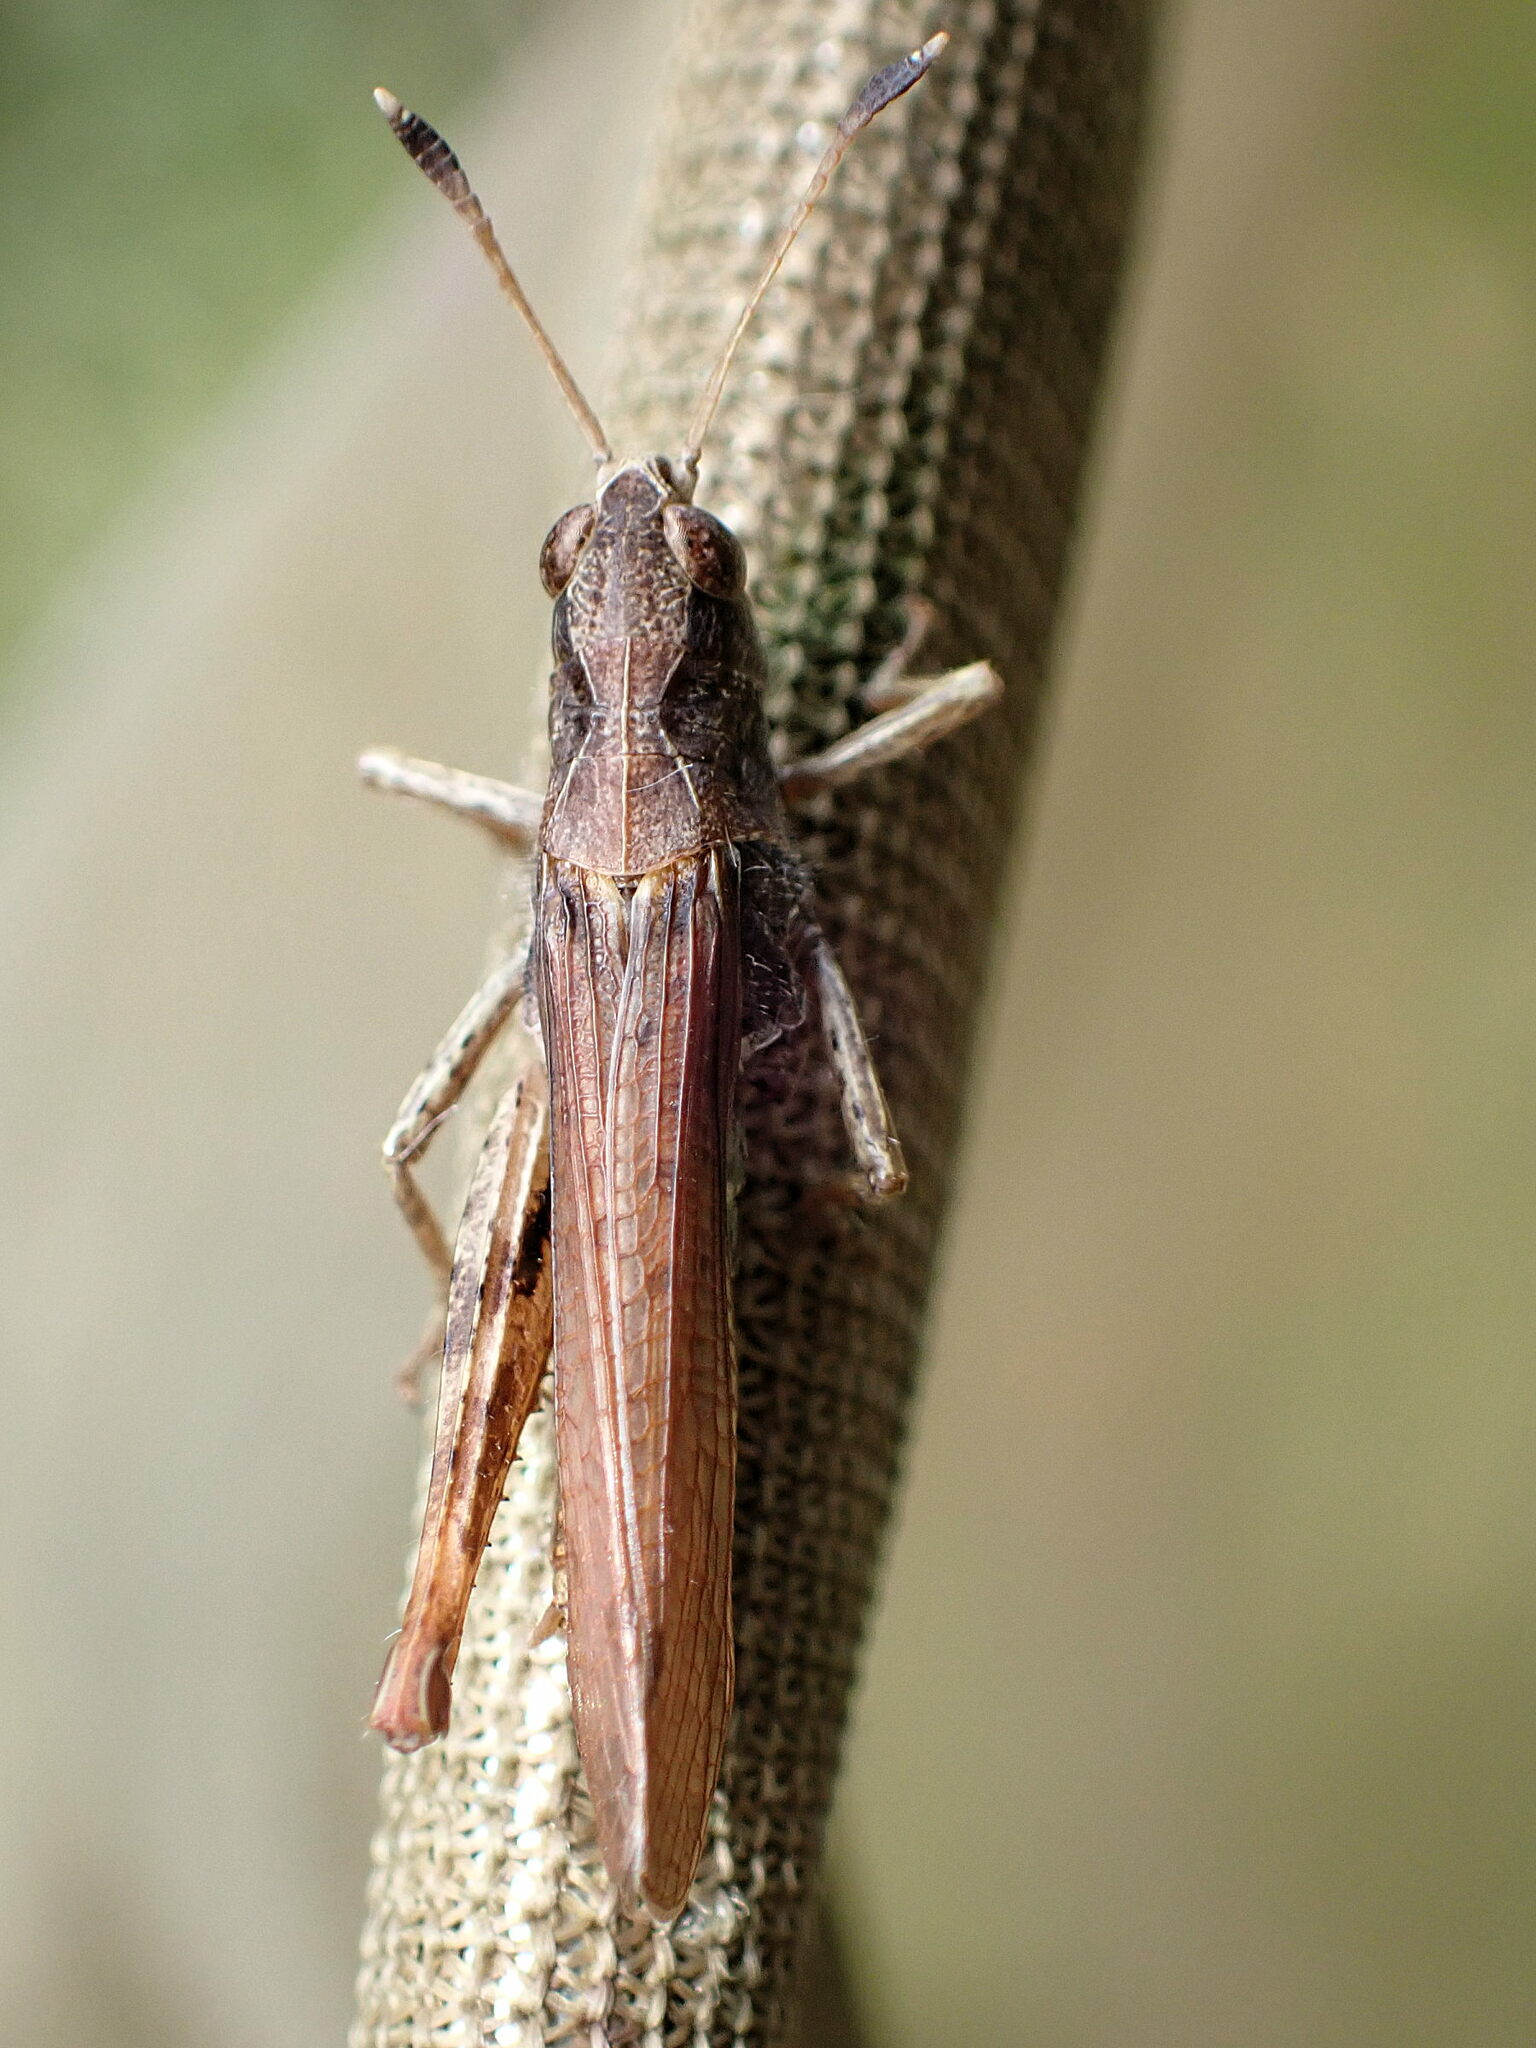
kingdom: Animalia
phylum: Arthropoda
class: Insecta
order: Orthoptera
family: Acrididae
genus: Gomphocerippus
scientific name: Gomphocerippus rufus
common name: Rufous grasshopper
